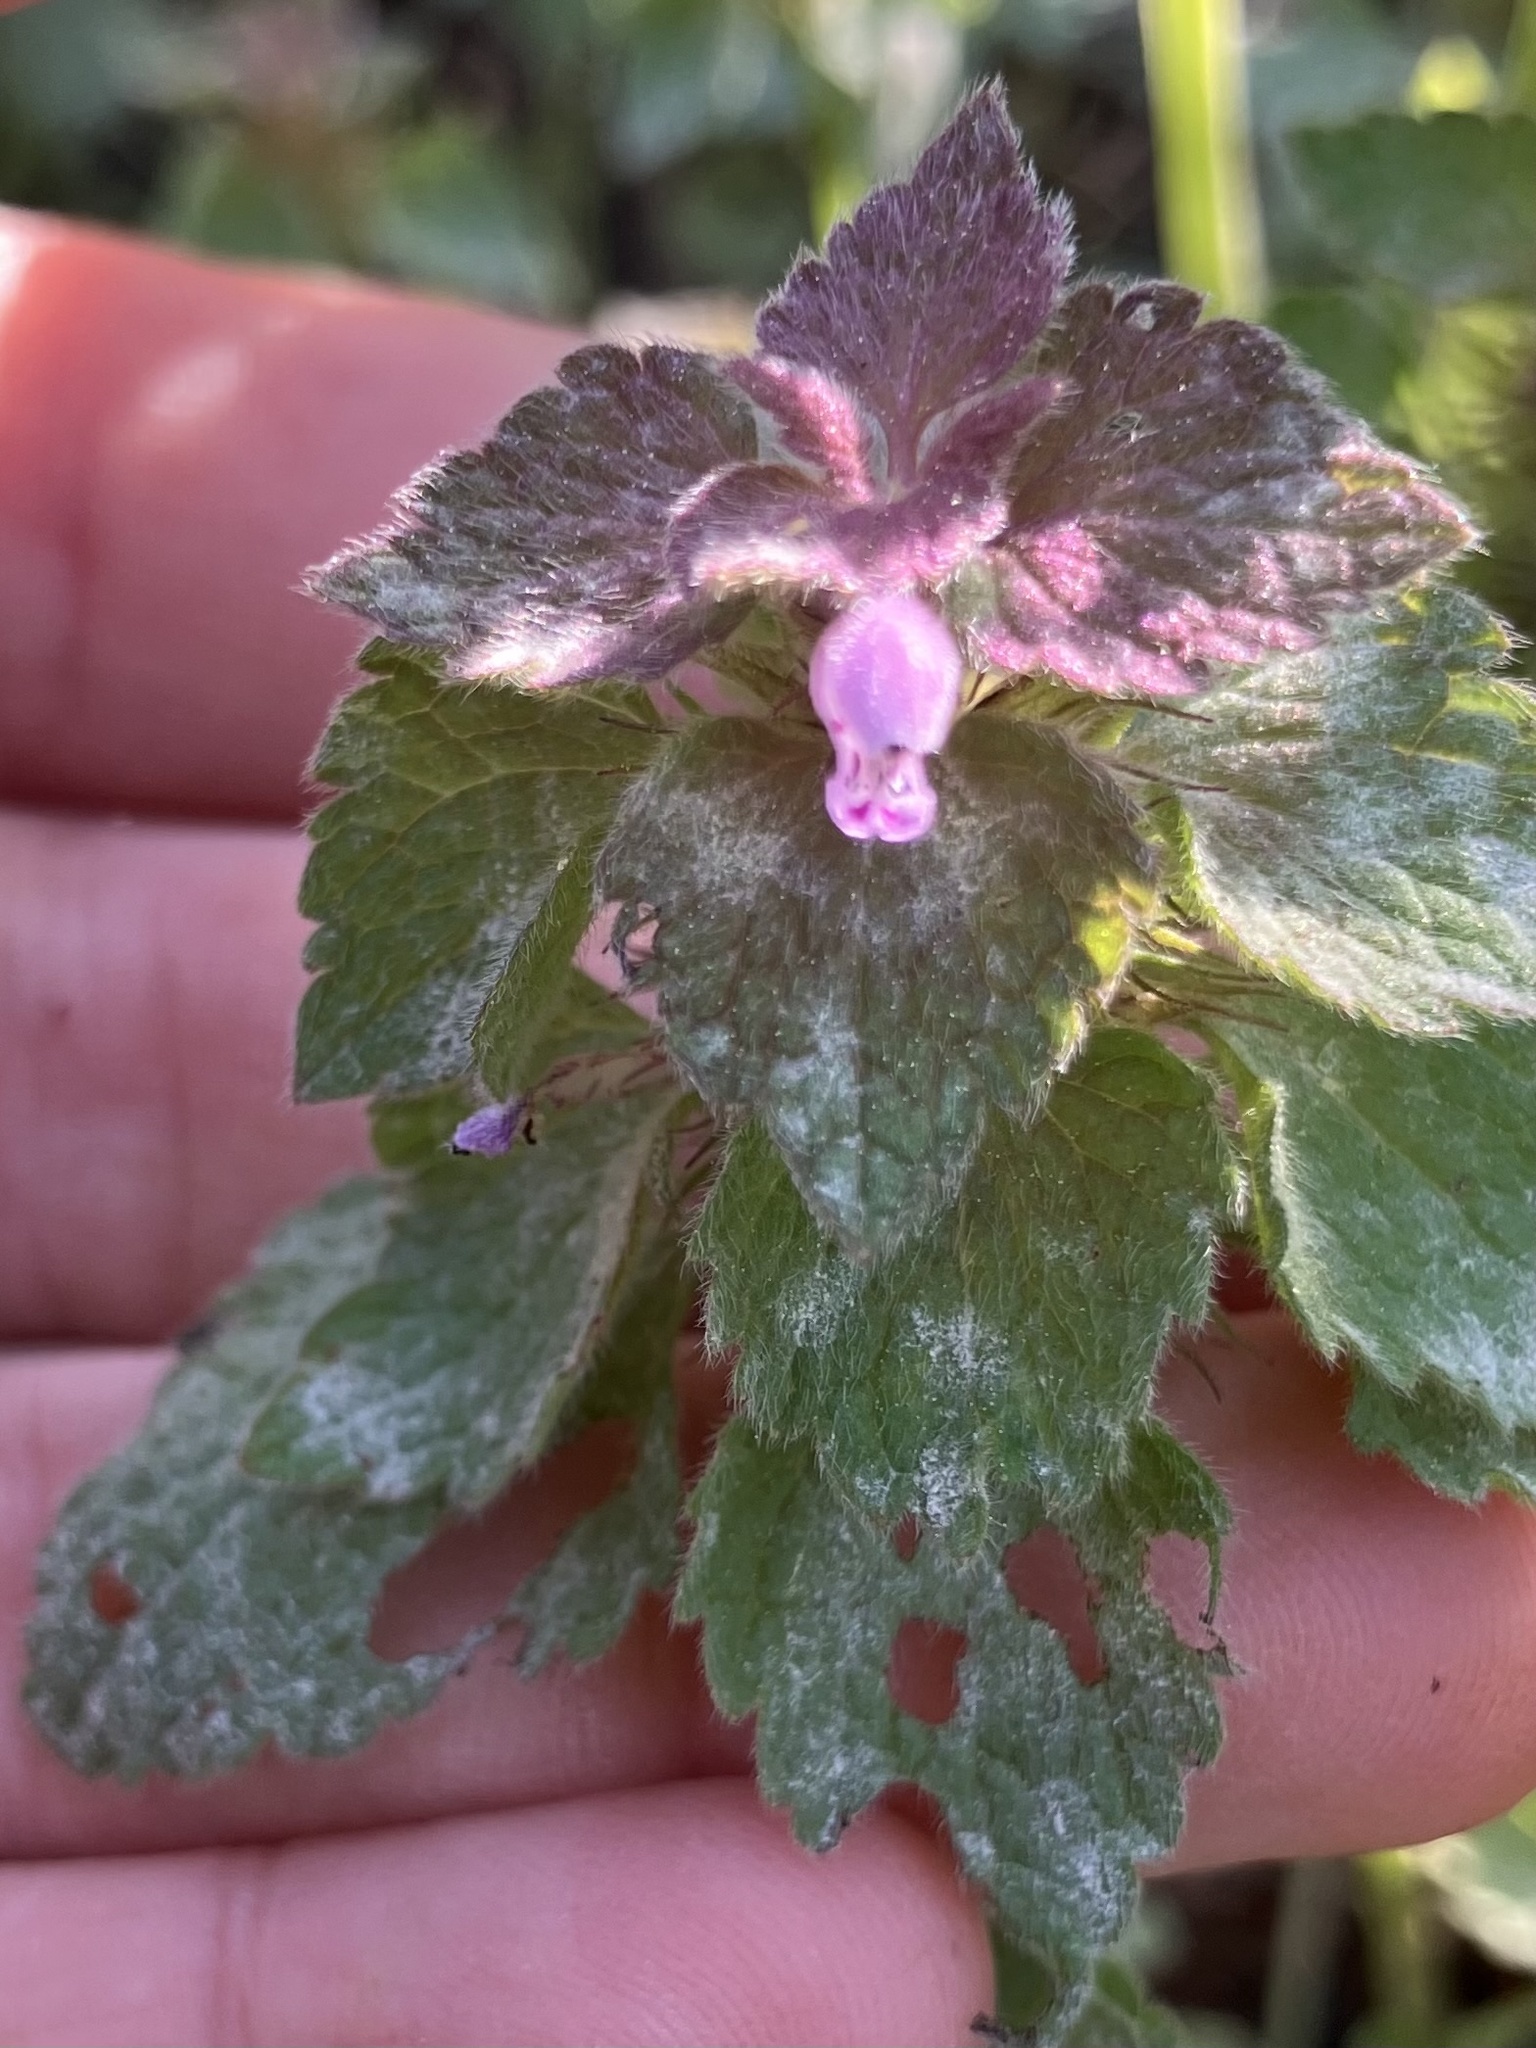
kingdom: Fungi
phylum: Ascomycota
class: Leotiomycetes
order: Helotiales
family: Erysiphaceae
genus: Neoerysiphe
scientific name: Neoerysiphe galeopsidis
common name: Mint mildew
